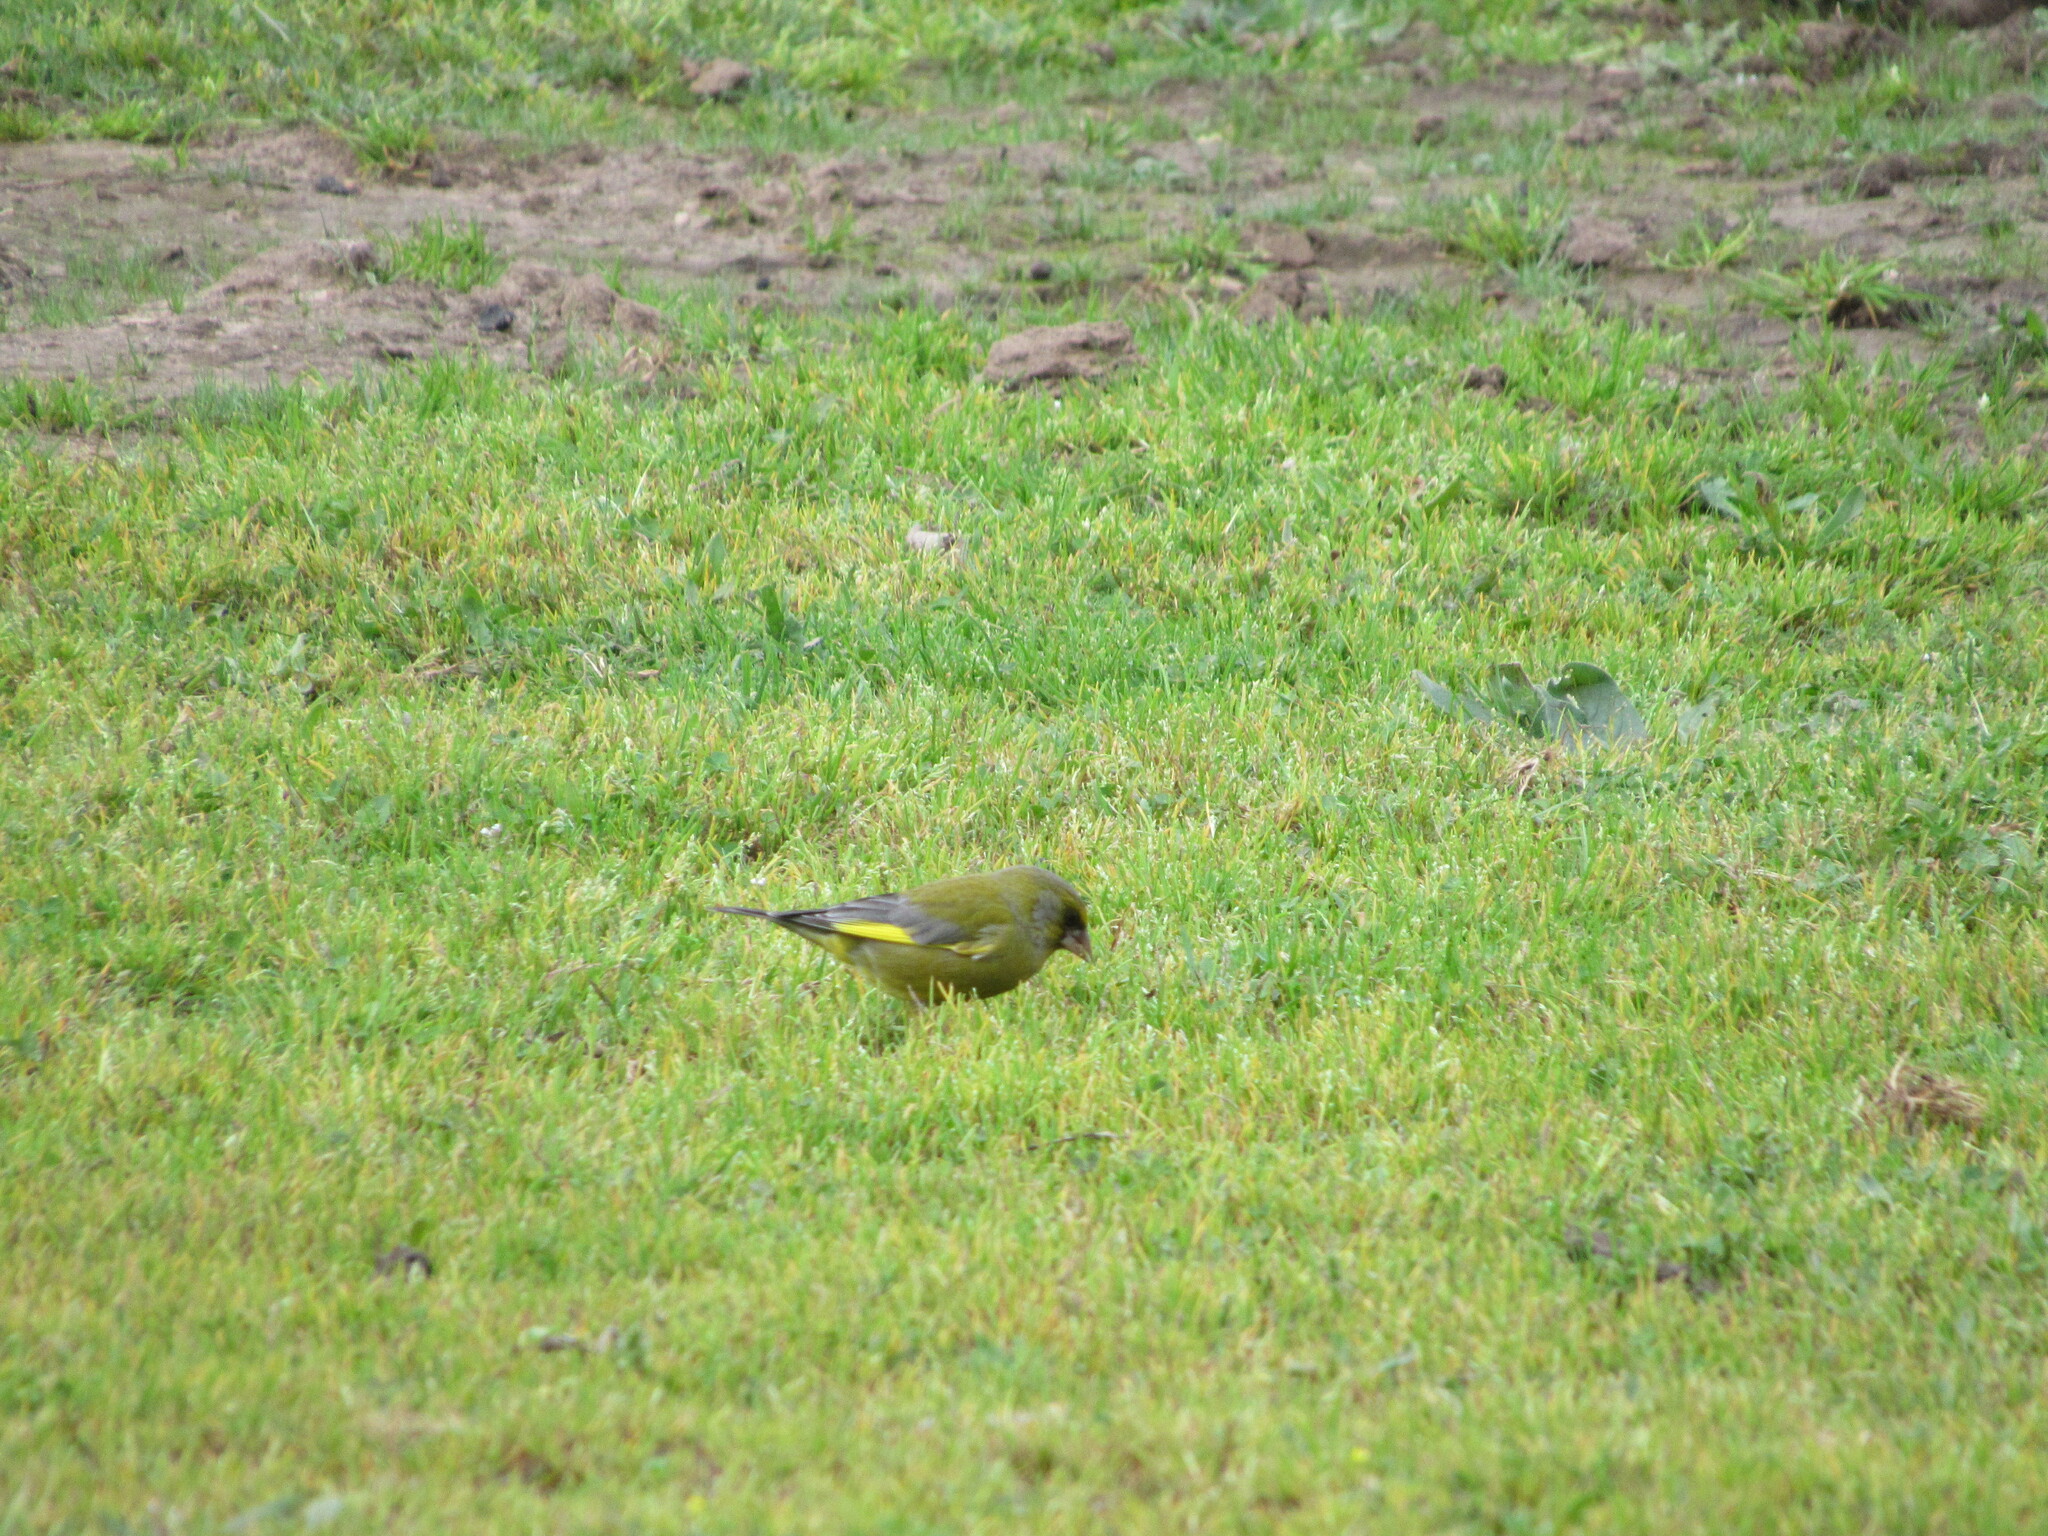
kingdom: Plantae
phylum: Tracheophyta
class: Liliopsida
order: Poales
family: Poaceae
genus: Chloris
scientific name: Chloris chloris
